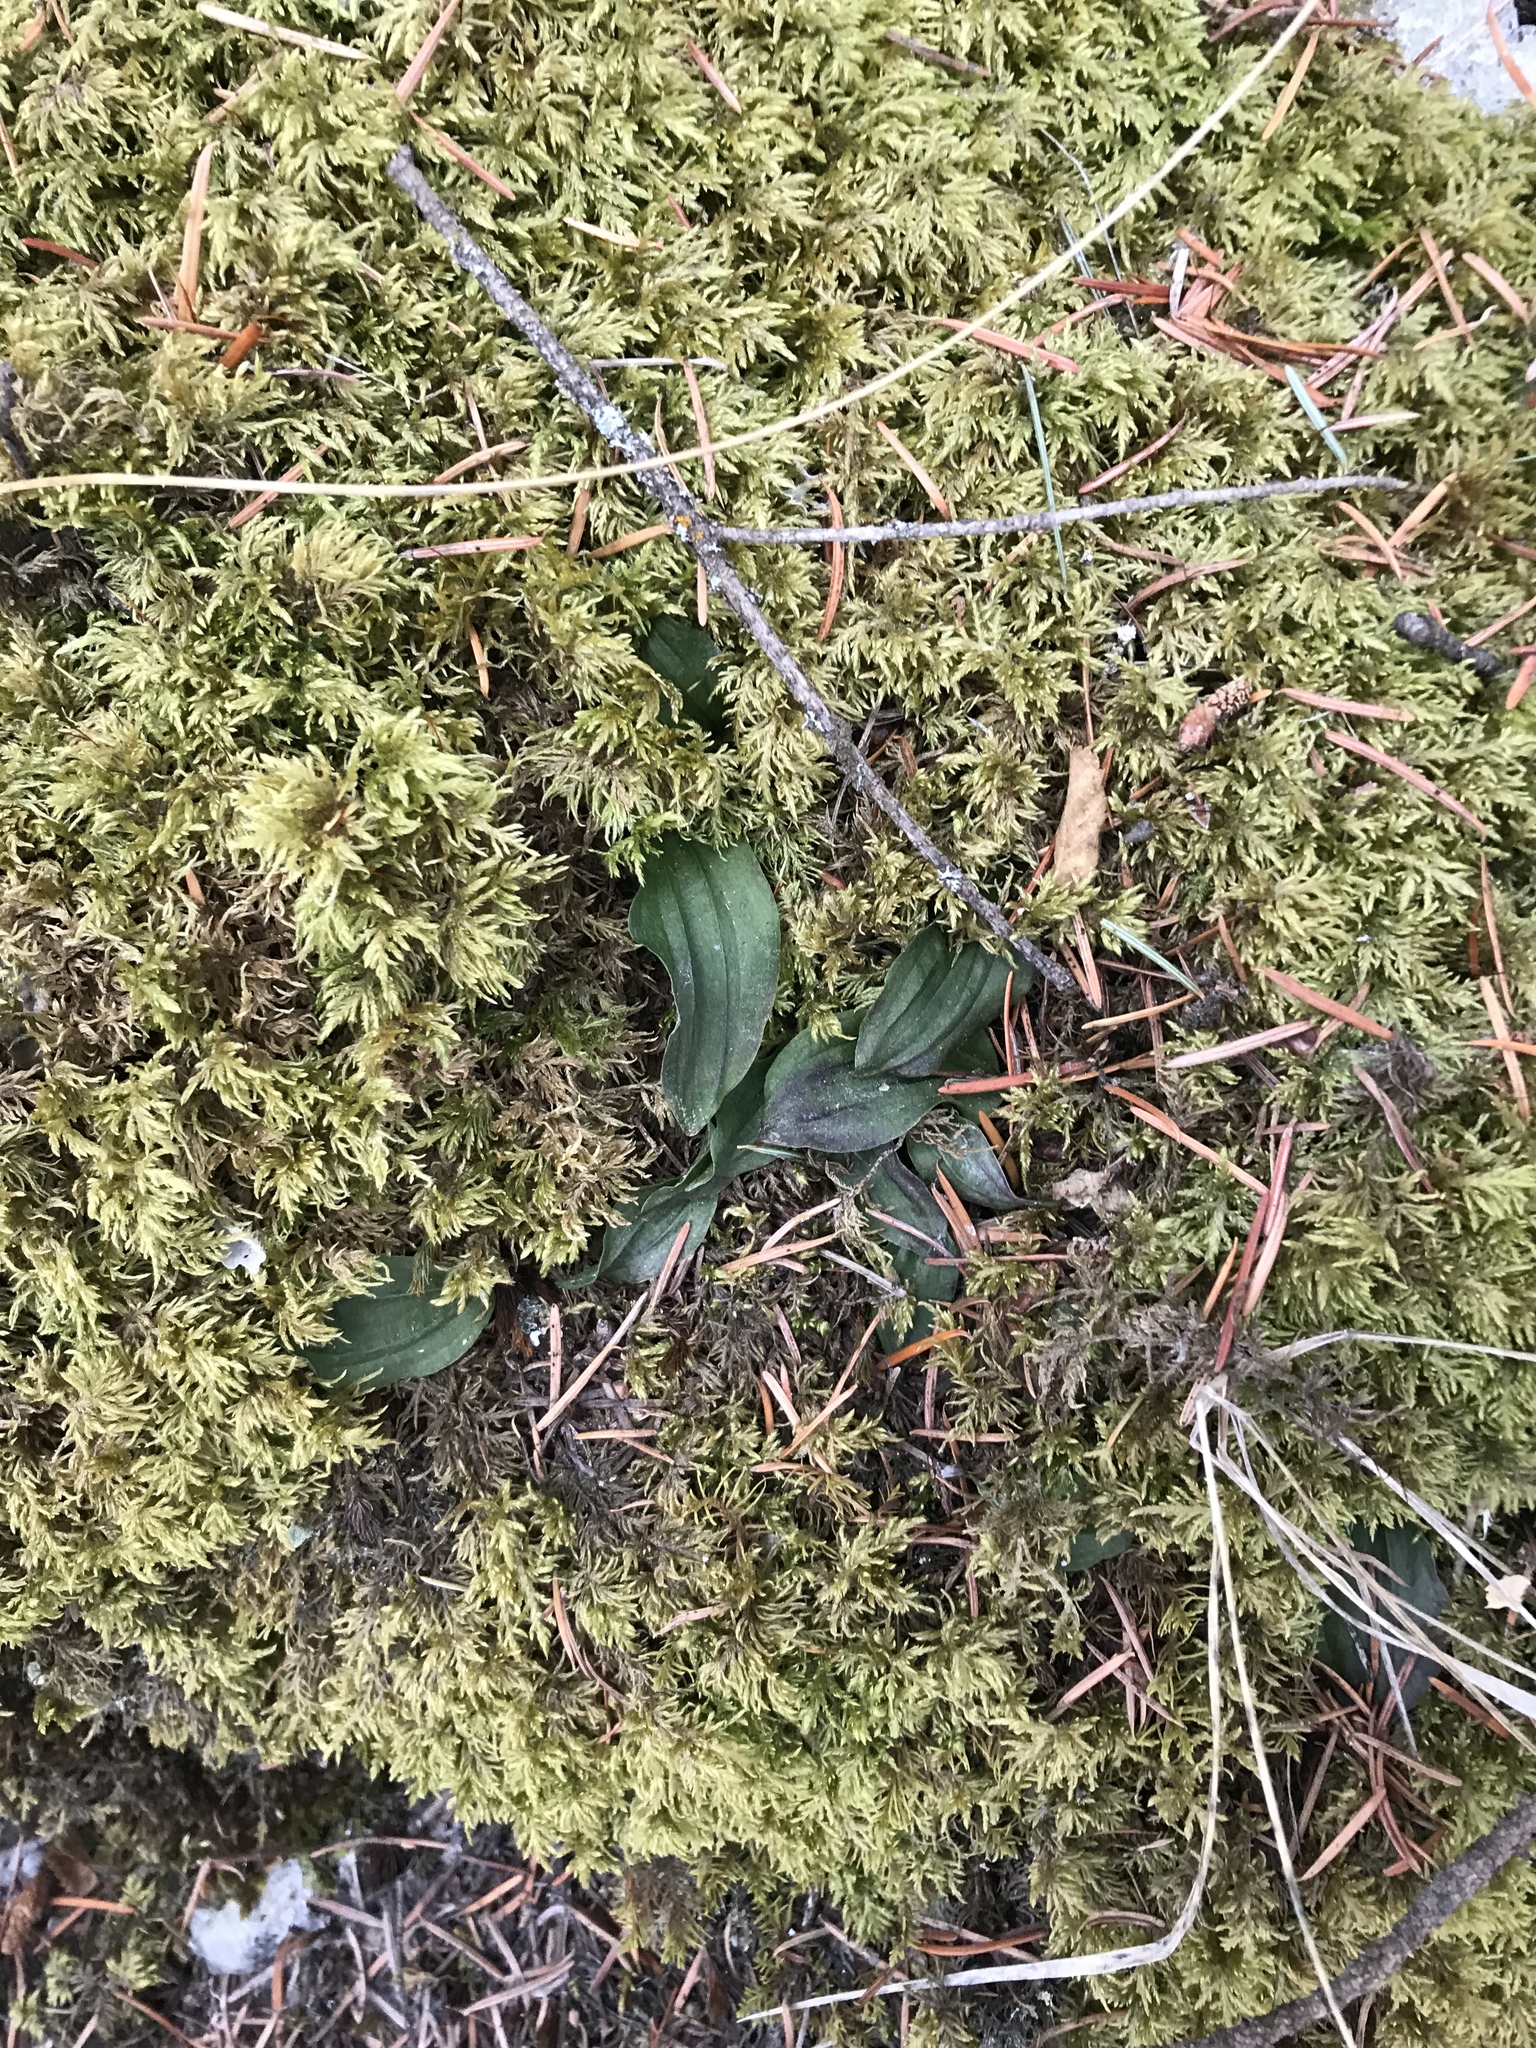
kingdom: Plantae
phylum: Tracheophyta
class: Liliopsida
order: Asparagales
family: Orchidaceae
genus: Calypso
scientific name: Calypso bulbosa
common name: Calypso
